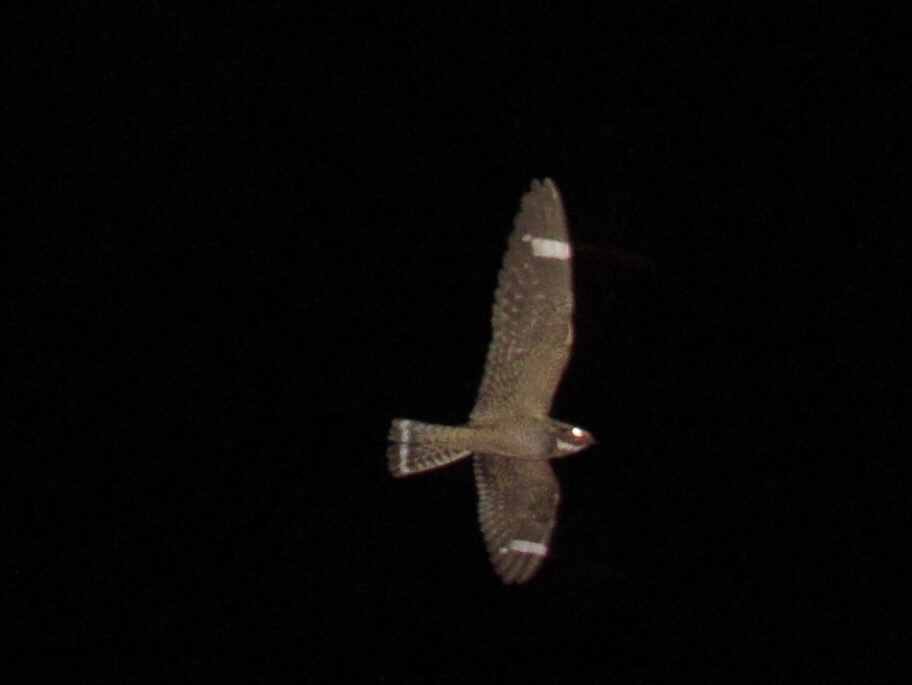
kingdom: Animalia
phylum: Chordata
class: Aves
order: Caprimulgiformes
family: Caprimulgidae
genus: Chordeiles
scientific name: Chordeiles acutipennis
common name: Lesser nighthawk
